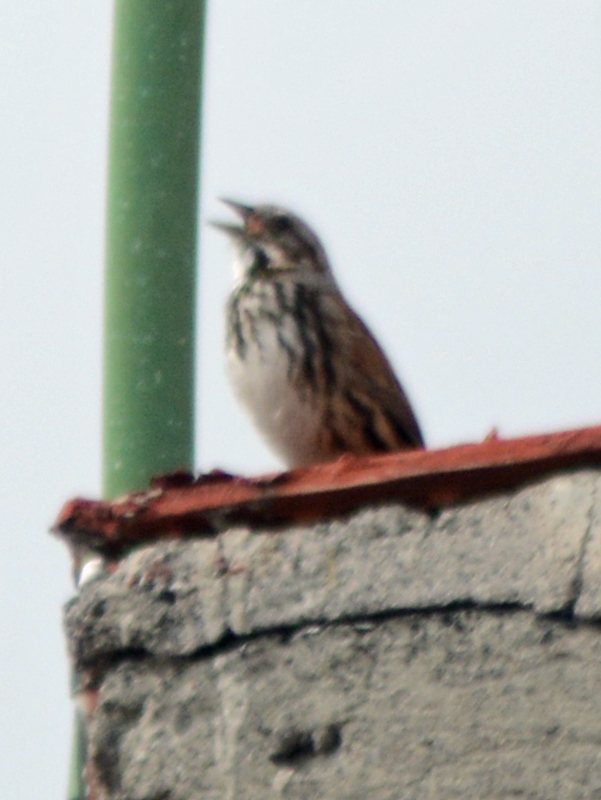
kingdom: Animalia
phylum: Chordata
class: Aves
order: Passeriformes
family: Passerellidae
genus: Melospiza
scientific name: Melospiza melodia
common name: Song sparrow
